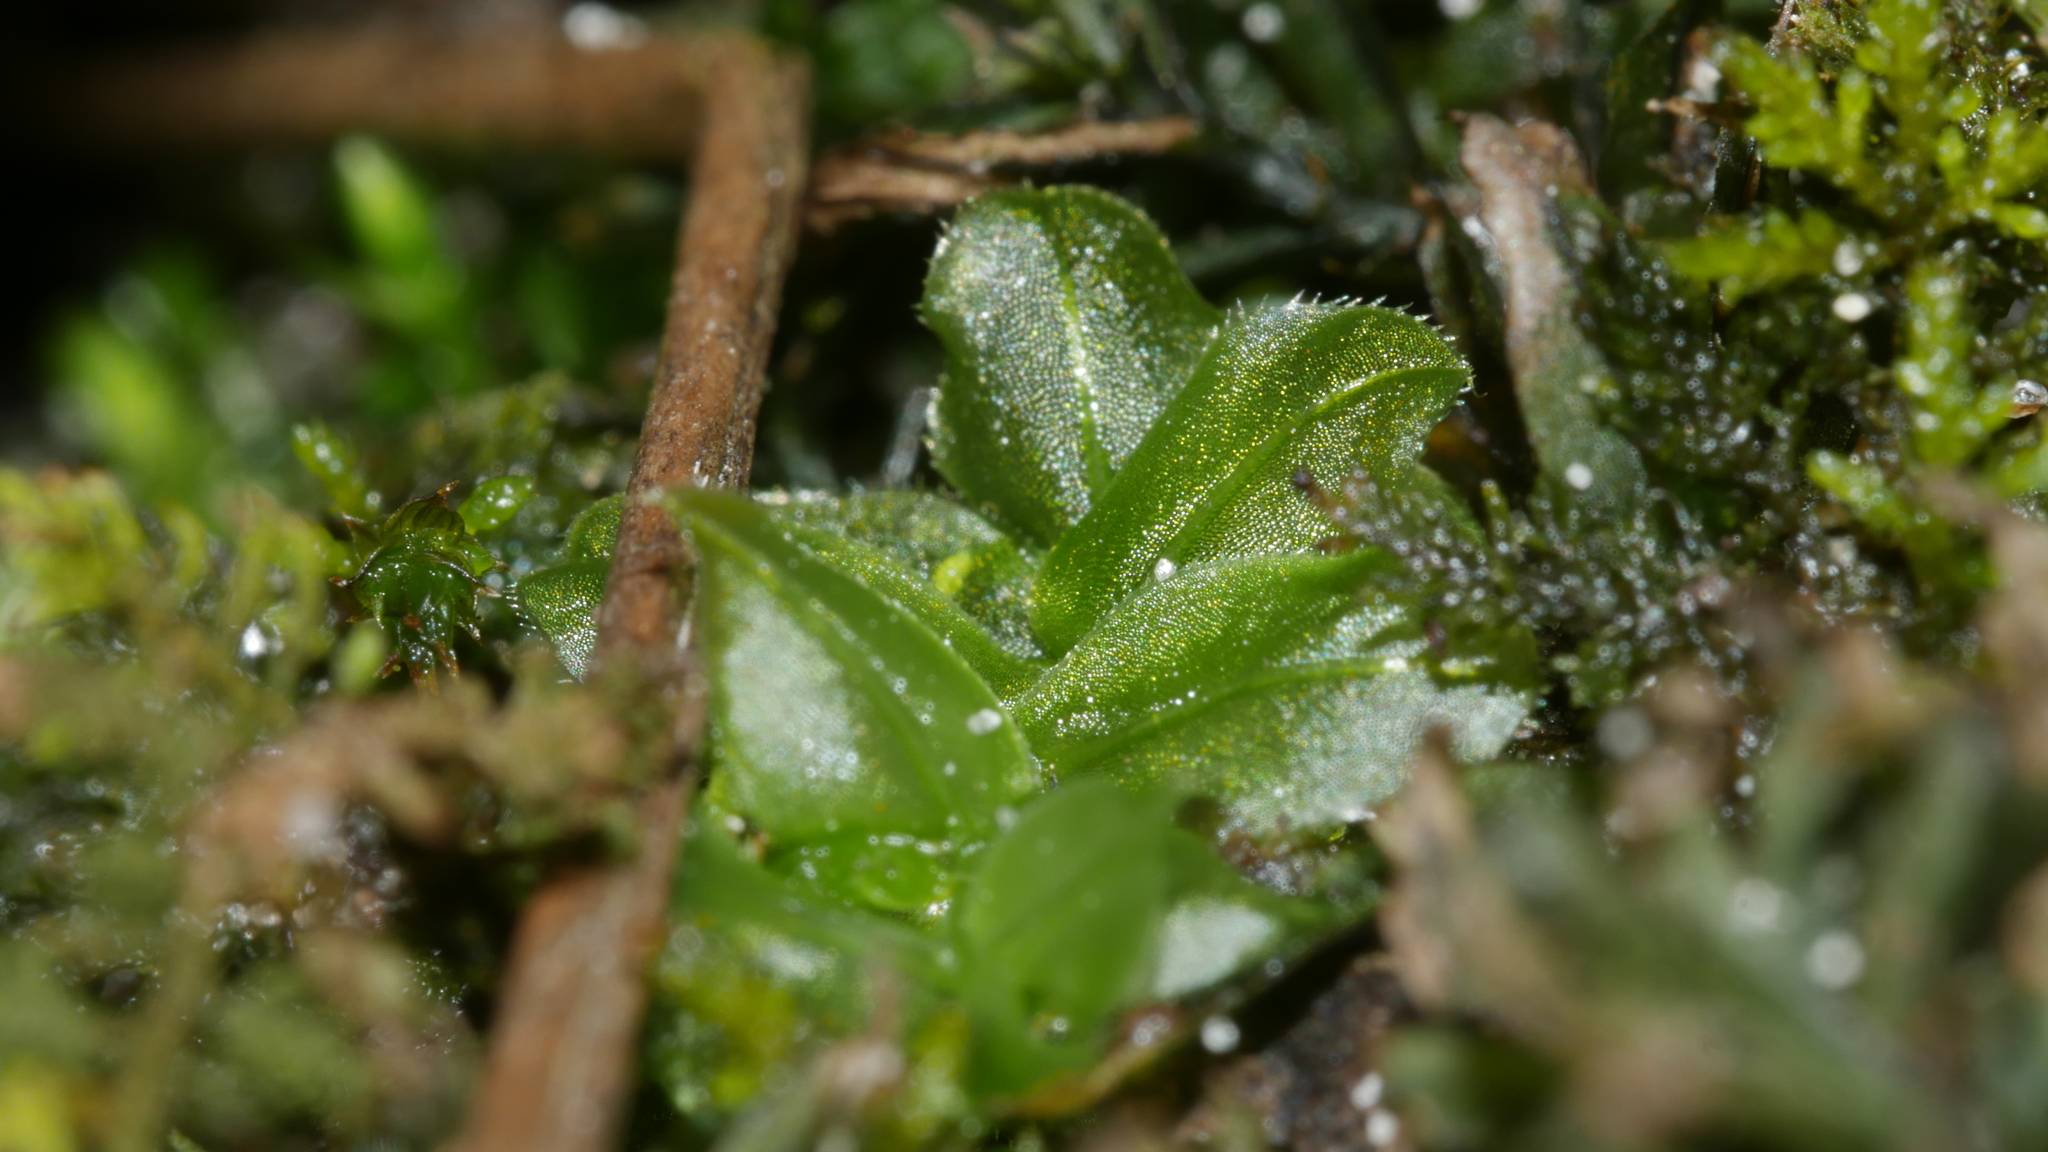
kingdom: Plantae
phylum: Bryophyta
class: Bryopsida
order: Bryales
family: Mniaceae
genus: Plagiomnium
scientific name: Plagiomnium
